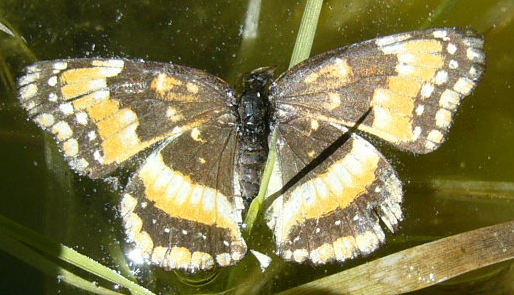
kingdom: Animalia
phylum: Arthropoda
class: Insecta
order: Lepidoptera
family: Nymphalidae
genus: Chlosyne
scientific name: Chlosyne californica
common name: California patch
